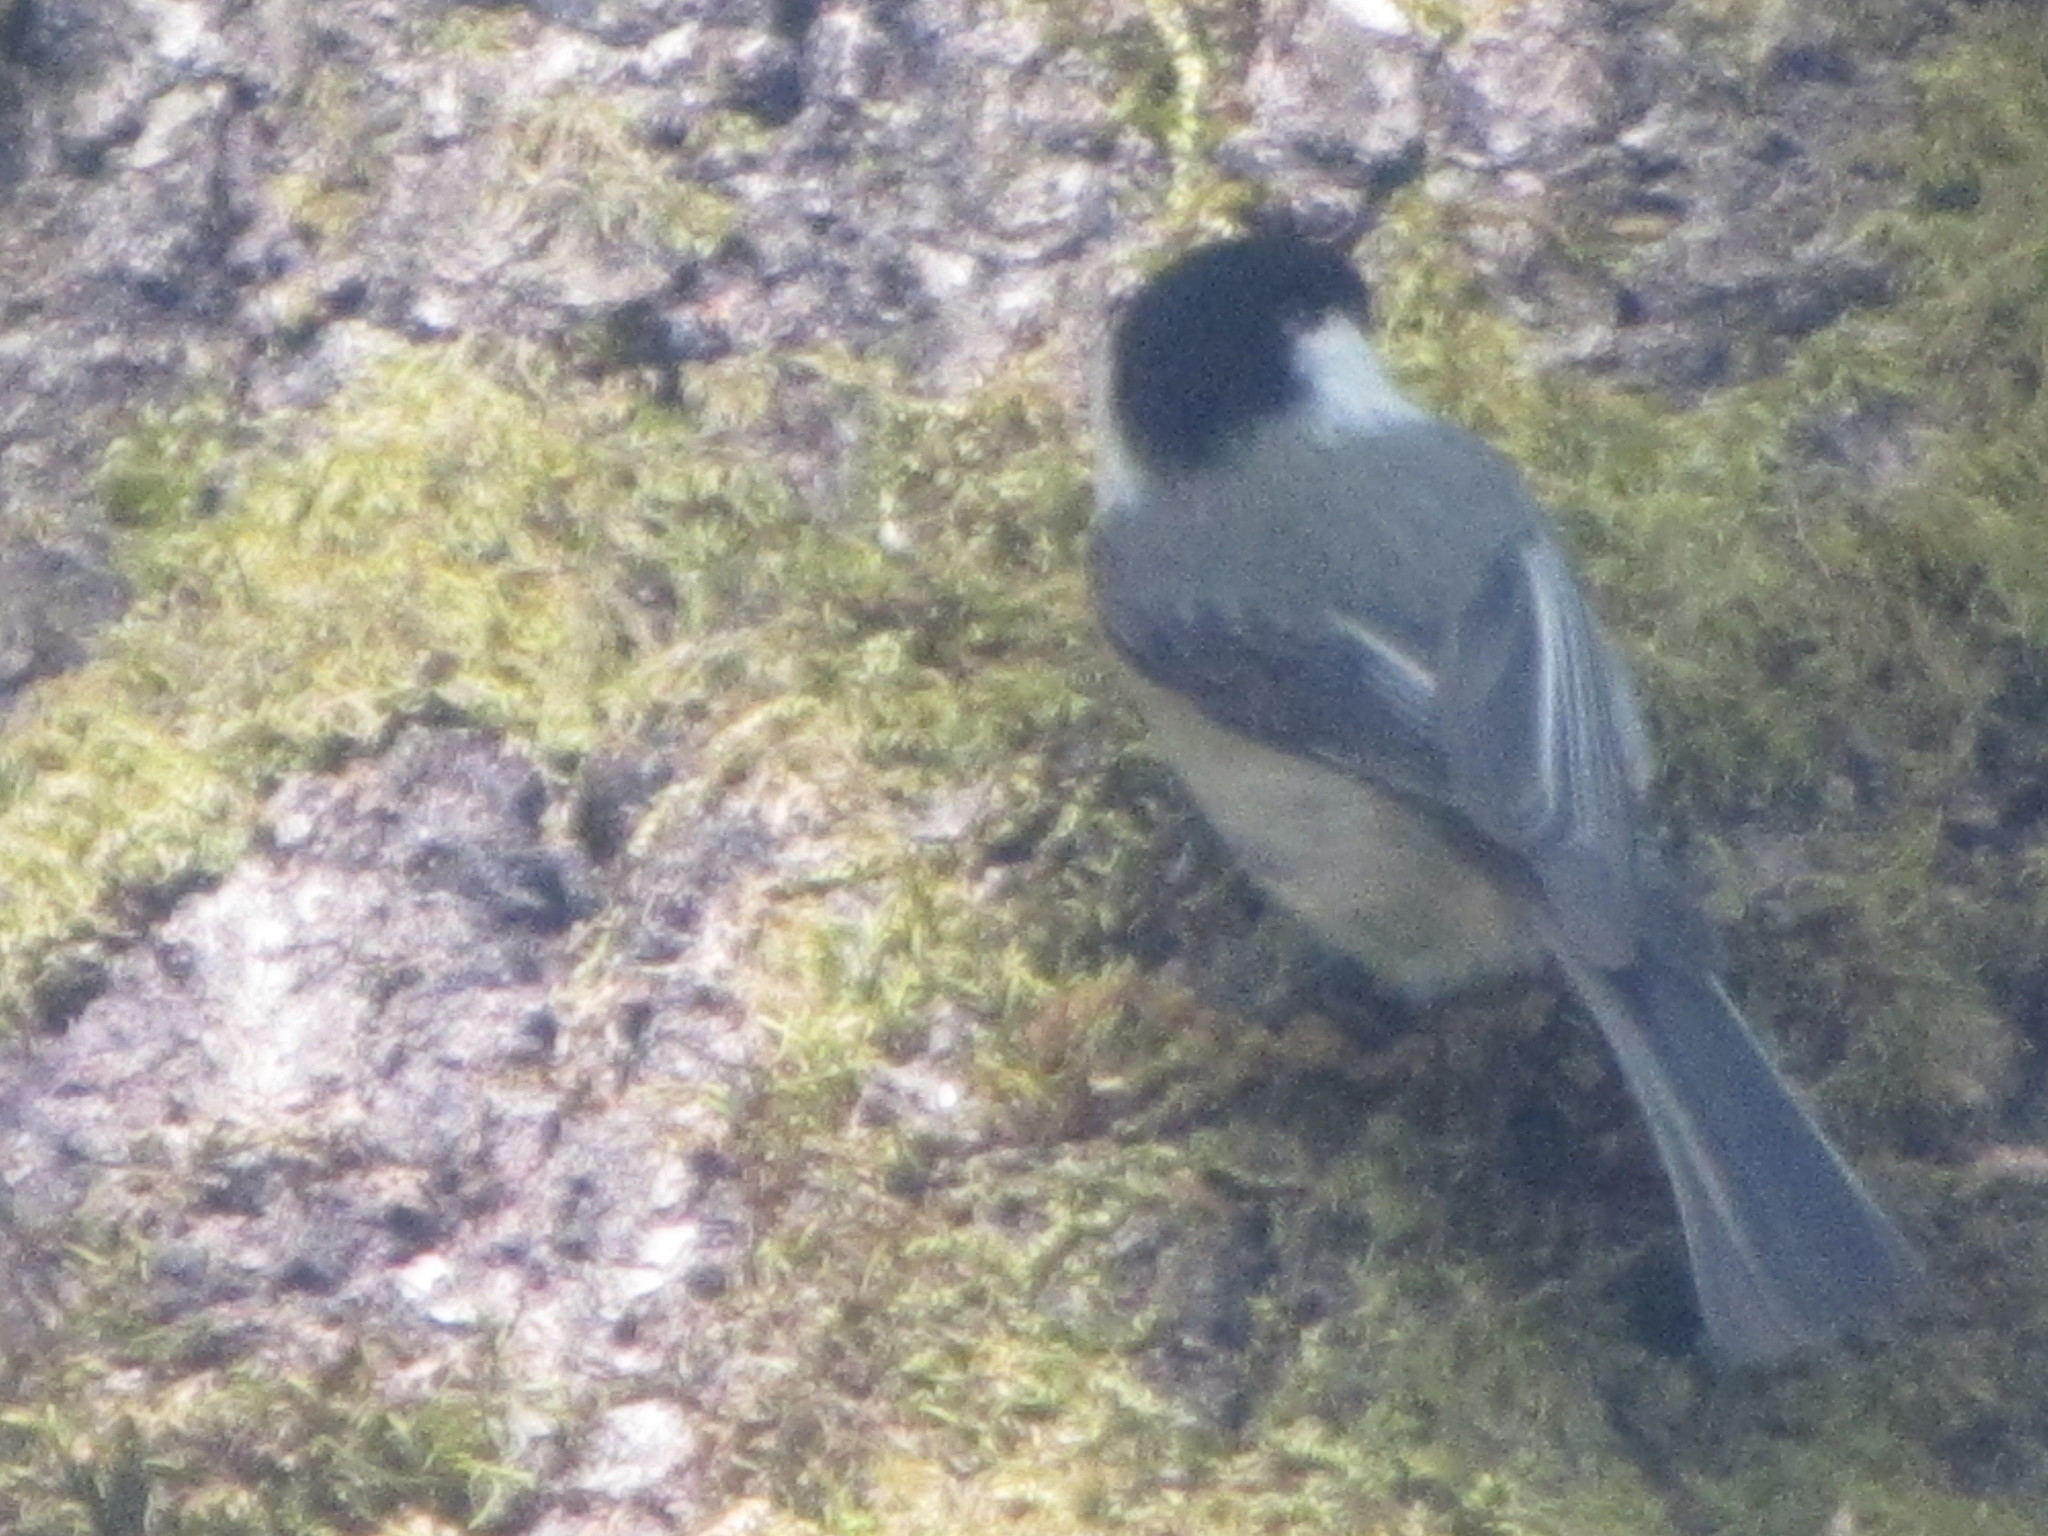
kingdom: Animalia
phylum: Chordata
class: Aves
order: Passeriformes
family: Paridae
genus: Poecile
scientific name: Poecile atricapillus
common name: Black-capped chickadee
